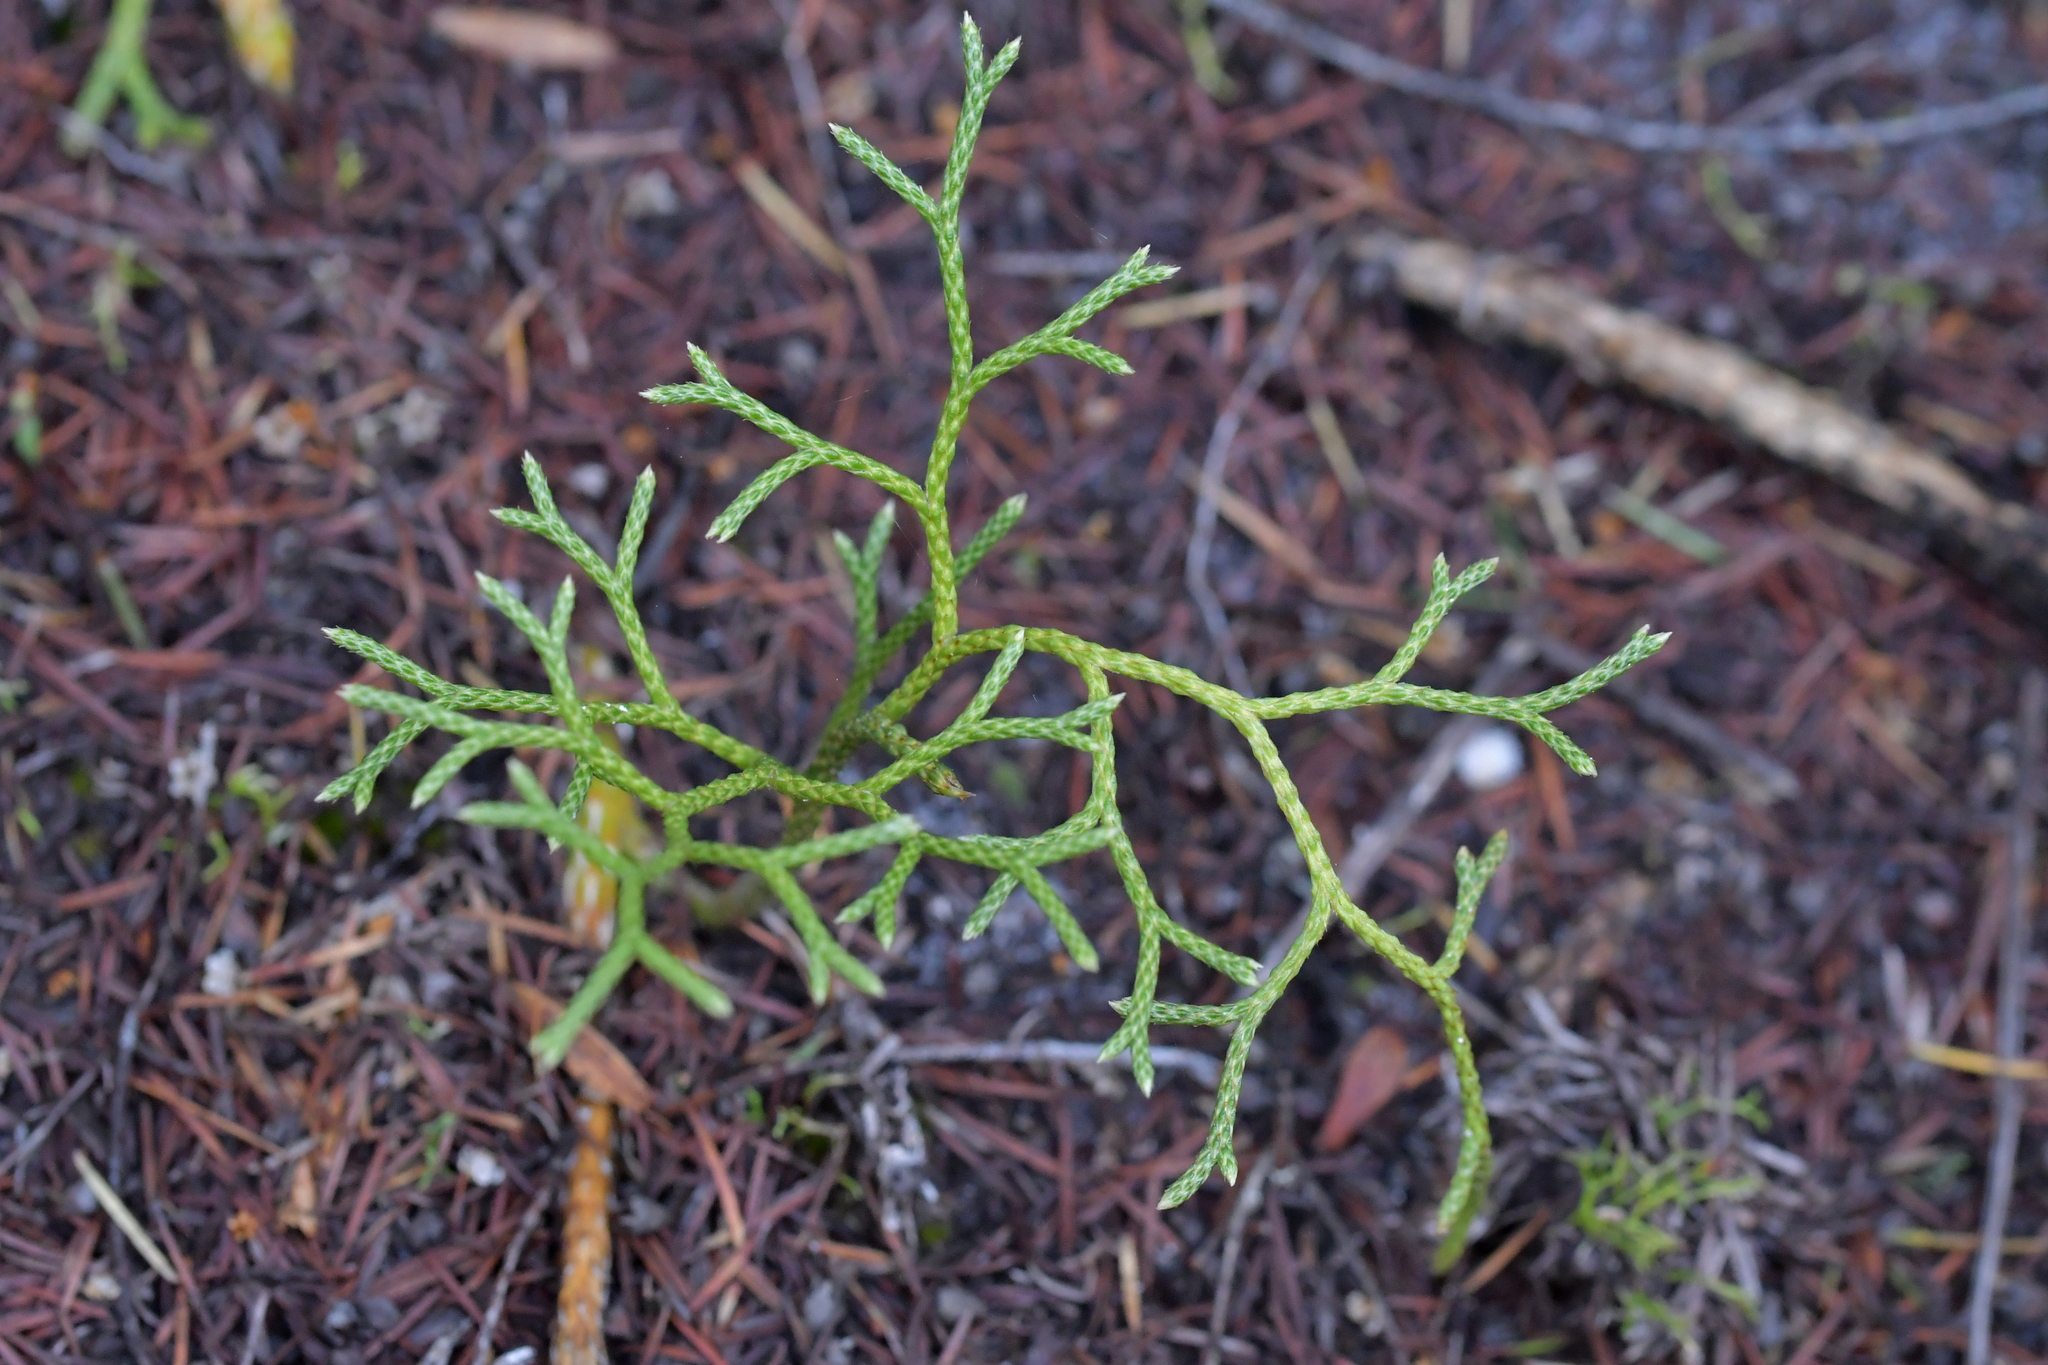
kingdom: Plantae
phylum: Tracheophyta
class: Lycopodiopsida
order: Lycopodiales
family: Lycopodiaceae
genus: Pseudolycopodium
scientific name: Pseudolycopodium densum
